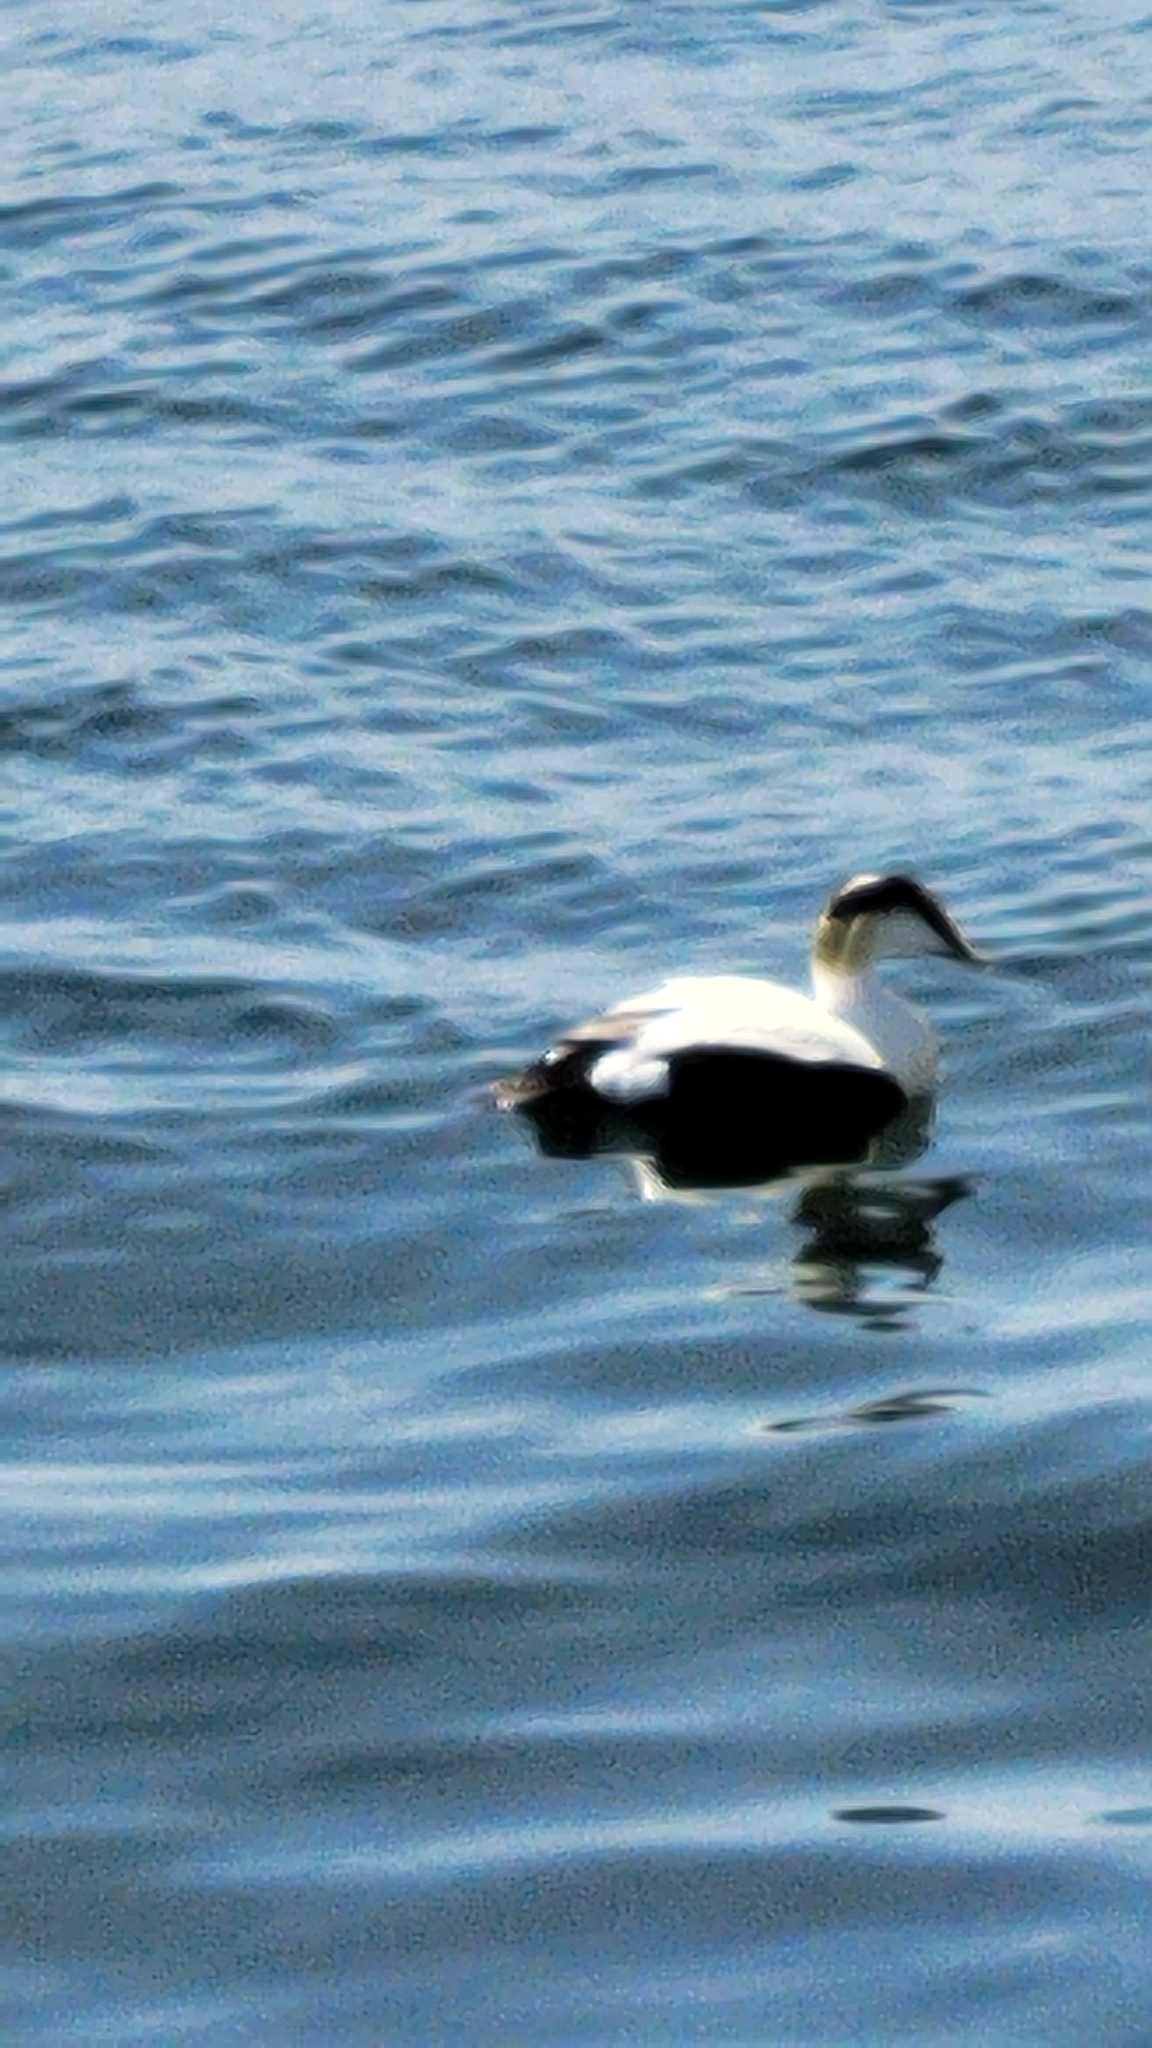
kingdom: Animalia
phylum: Chordata
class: Aves
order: Anseriformes
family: Anatidae
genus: Somateria
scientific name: Somateria mollissima
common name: Common eider
